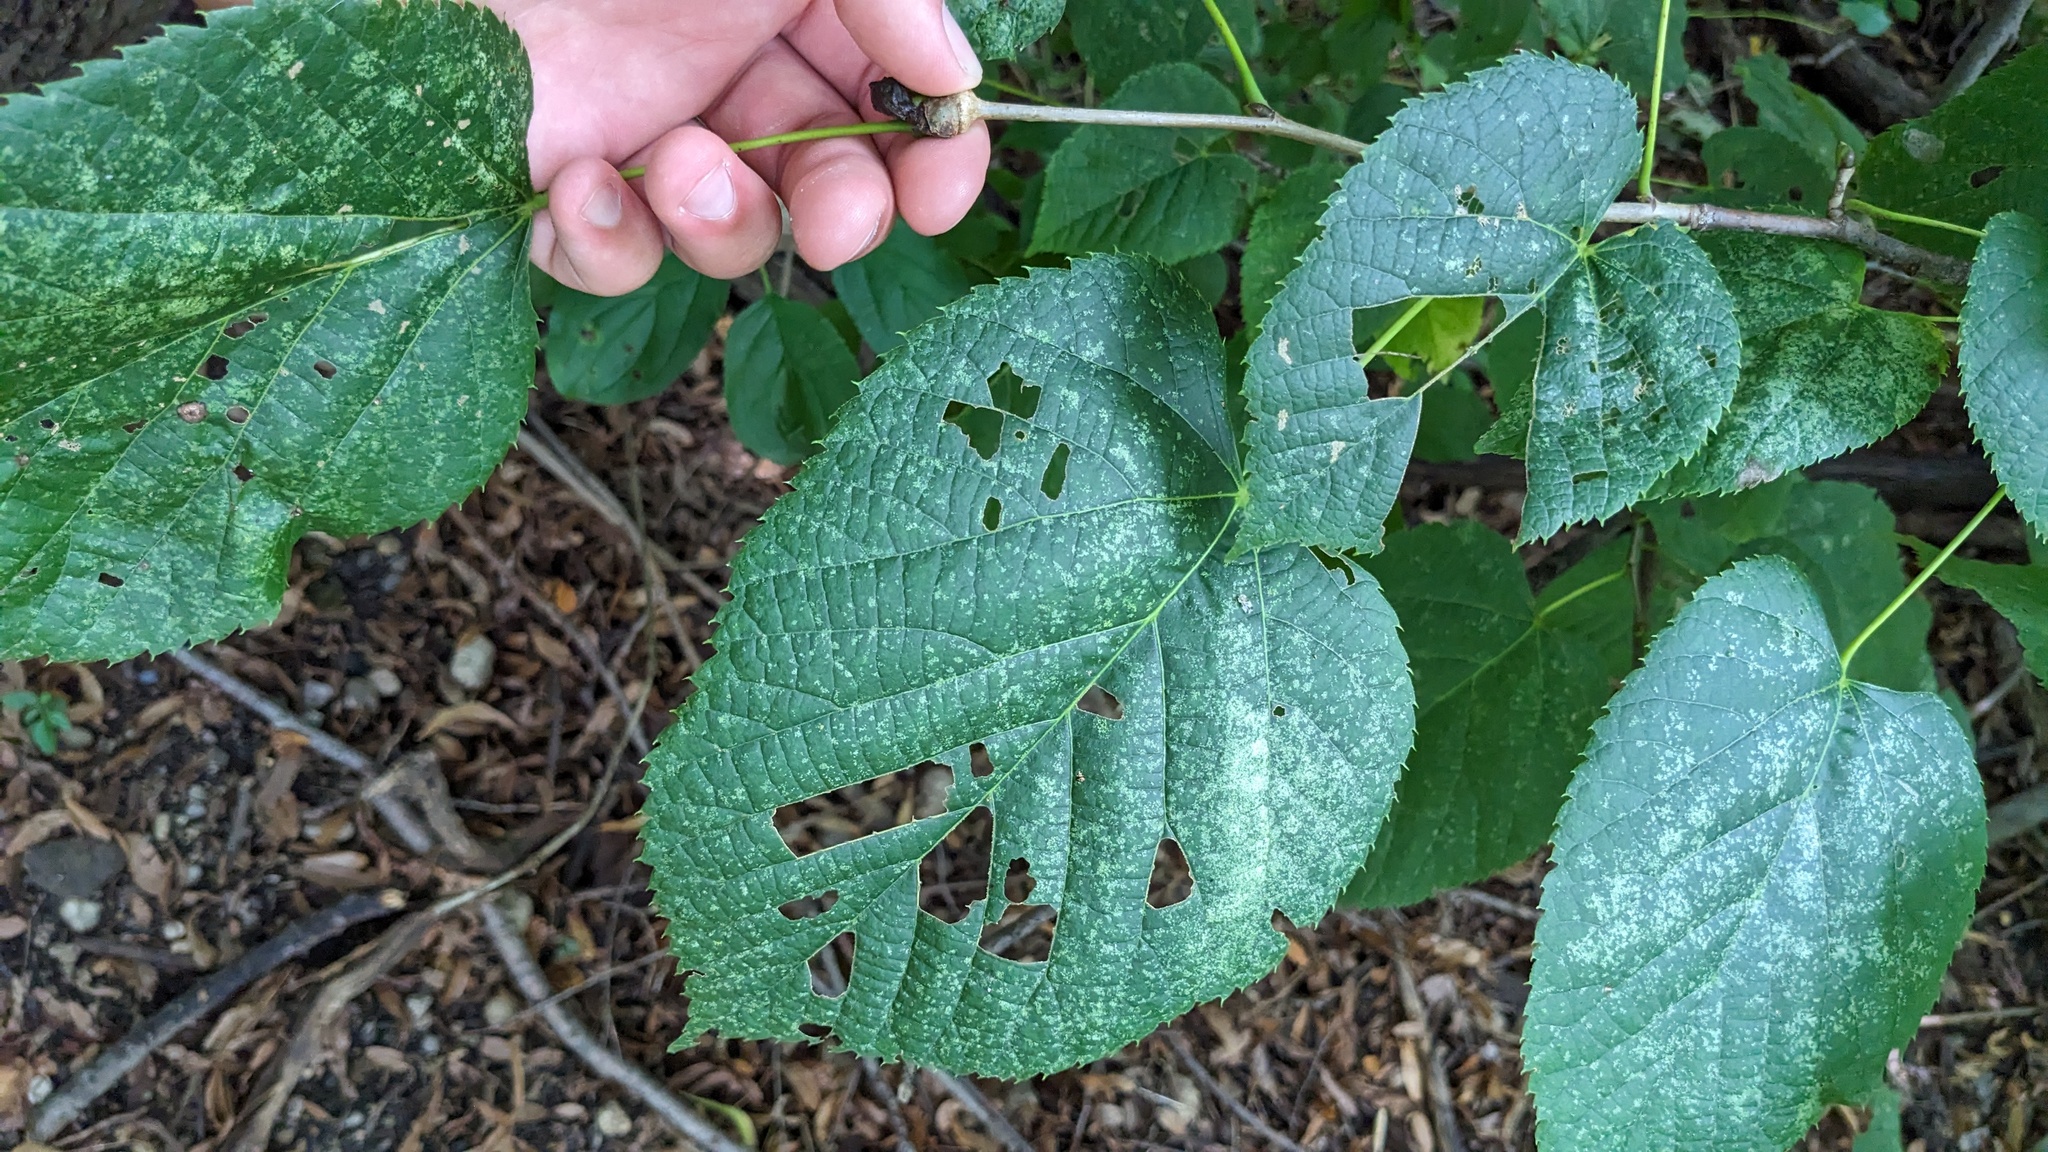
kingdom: Plantae
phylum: Tracheophyta
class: Magnoliopsida
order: Malvales
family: Malvaceae
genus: Tilia
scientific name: Tilia americana
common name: Basswood
